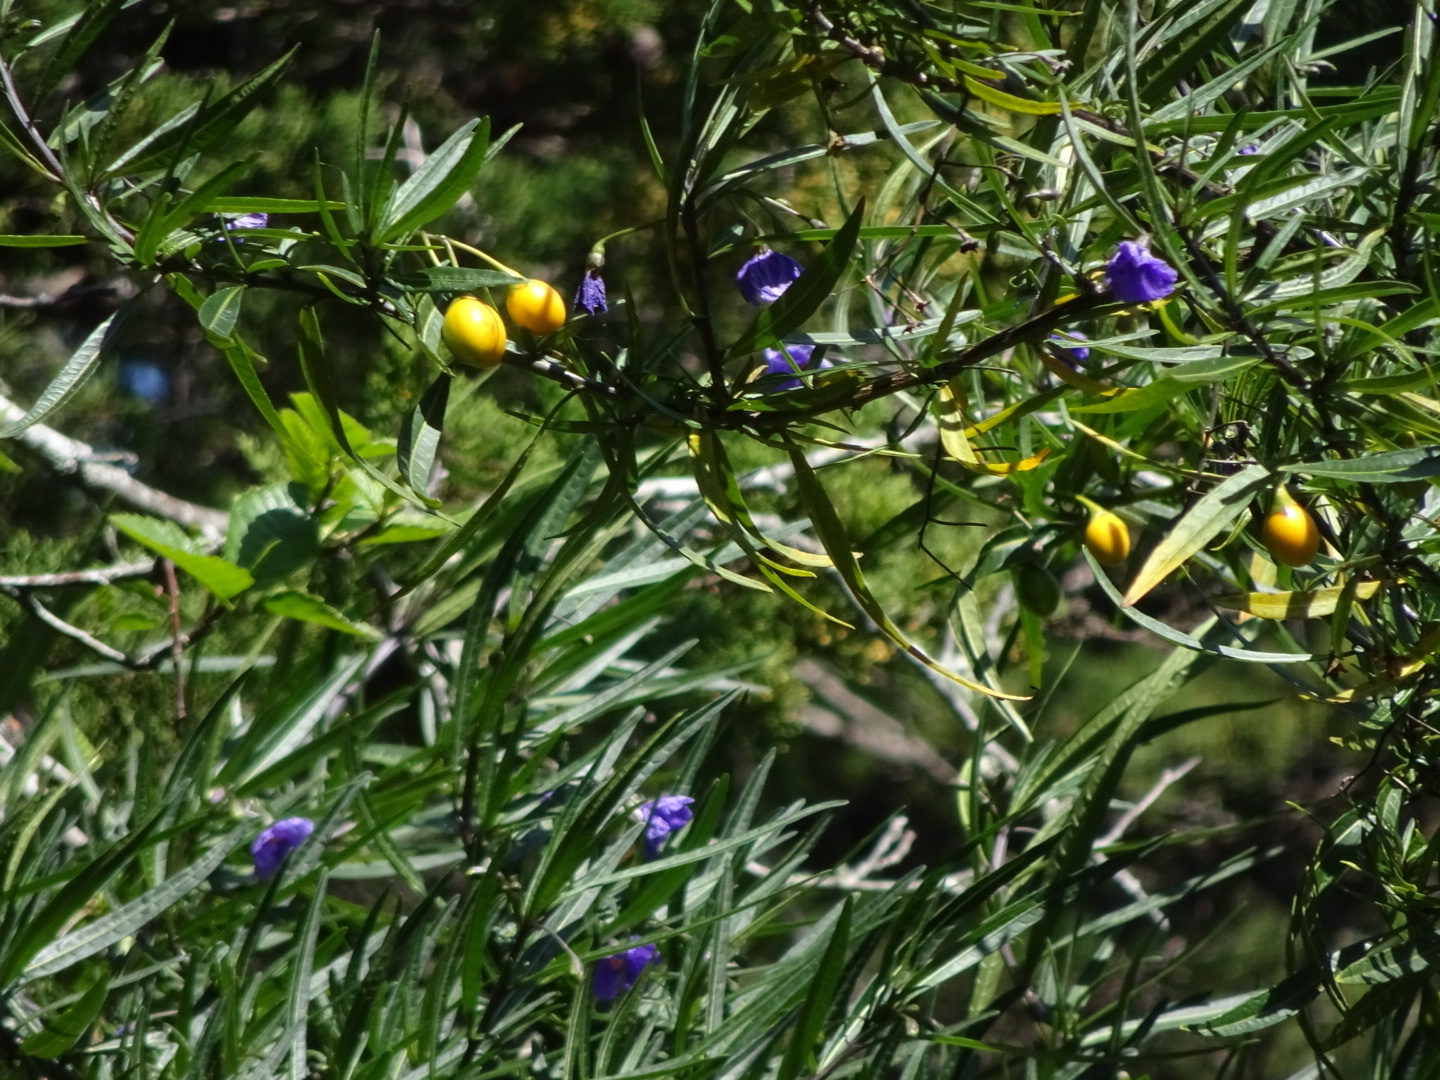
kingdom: Plantae
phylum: Tracheophyta
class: Magnoliopsida
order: Solanales
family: Solanaceae
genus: Solanum
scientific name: Solanum laciniatum
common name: Kangaroo-apple
